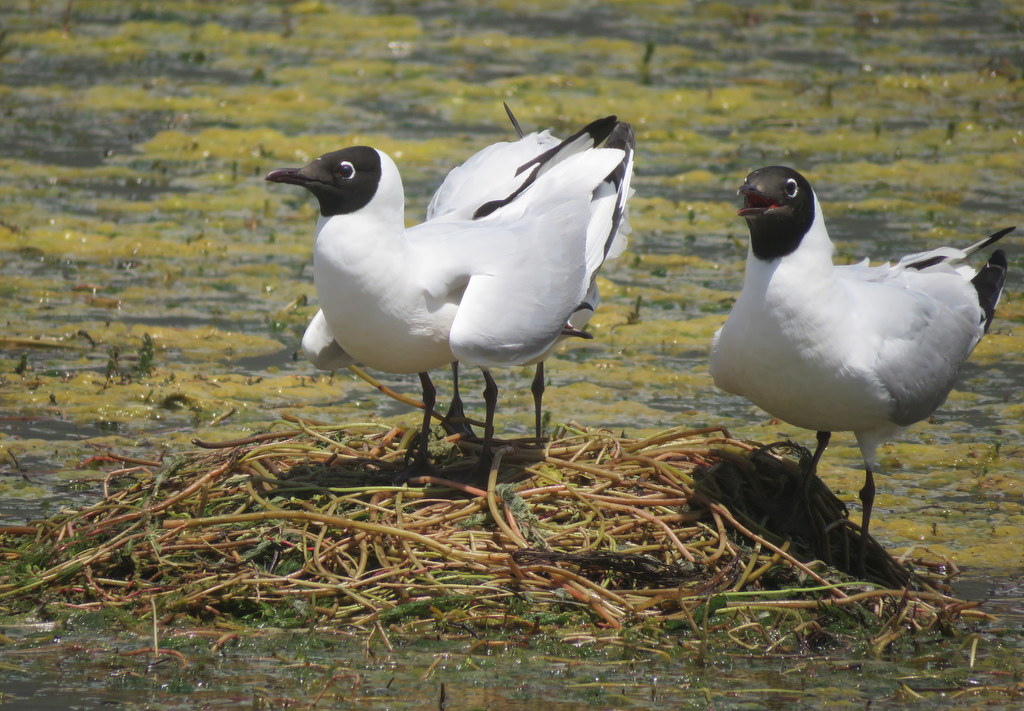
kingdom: Animalia
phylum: Chordata
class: Aves
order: Charadriiformes
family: Laridae
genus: Chroicocephalus
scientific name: Chroicocephalus serranus
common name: Andean gull
